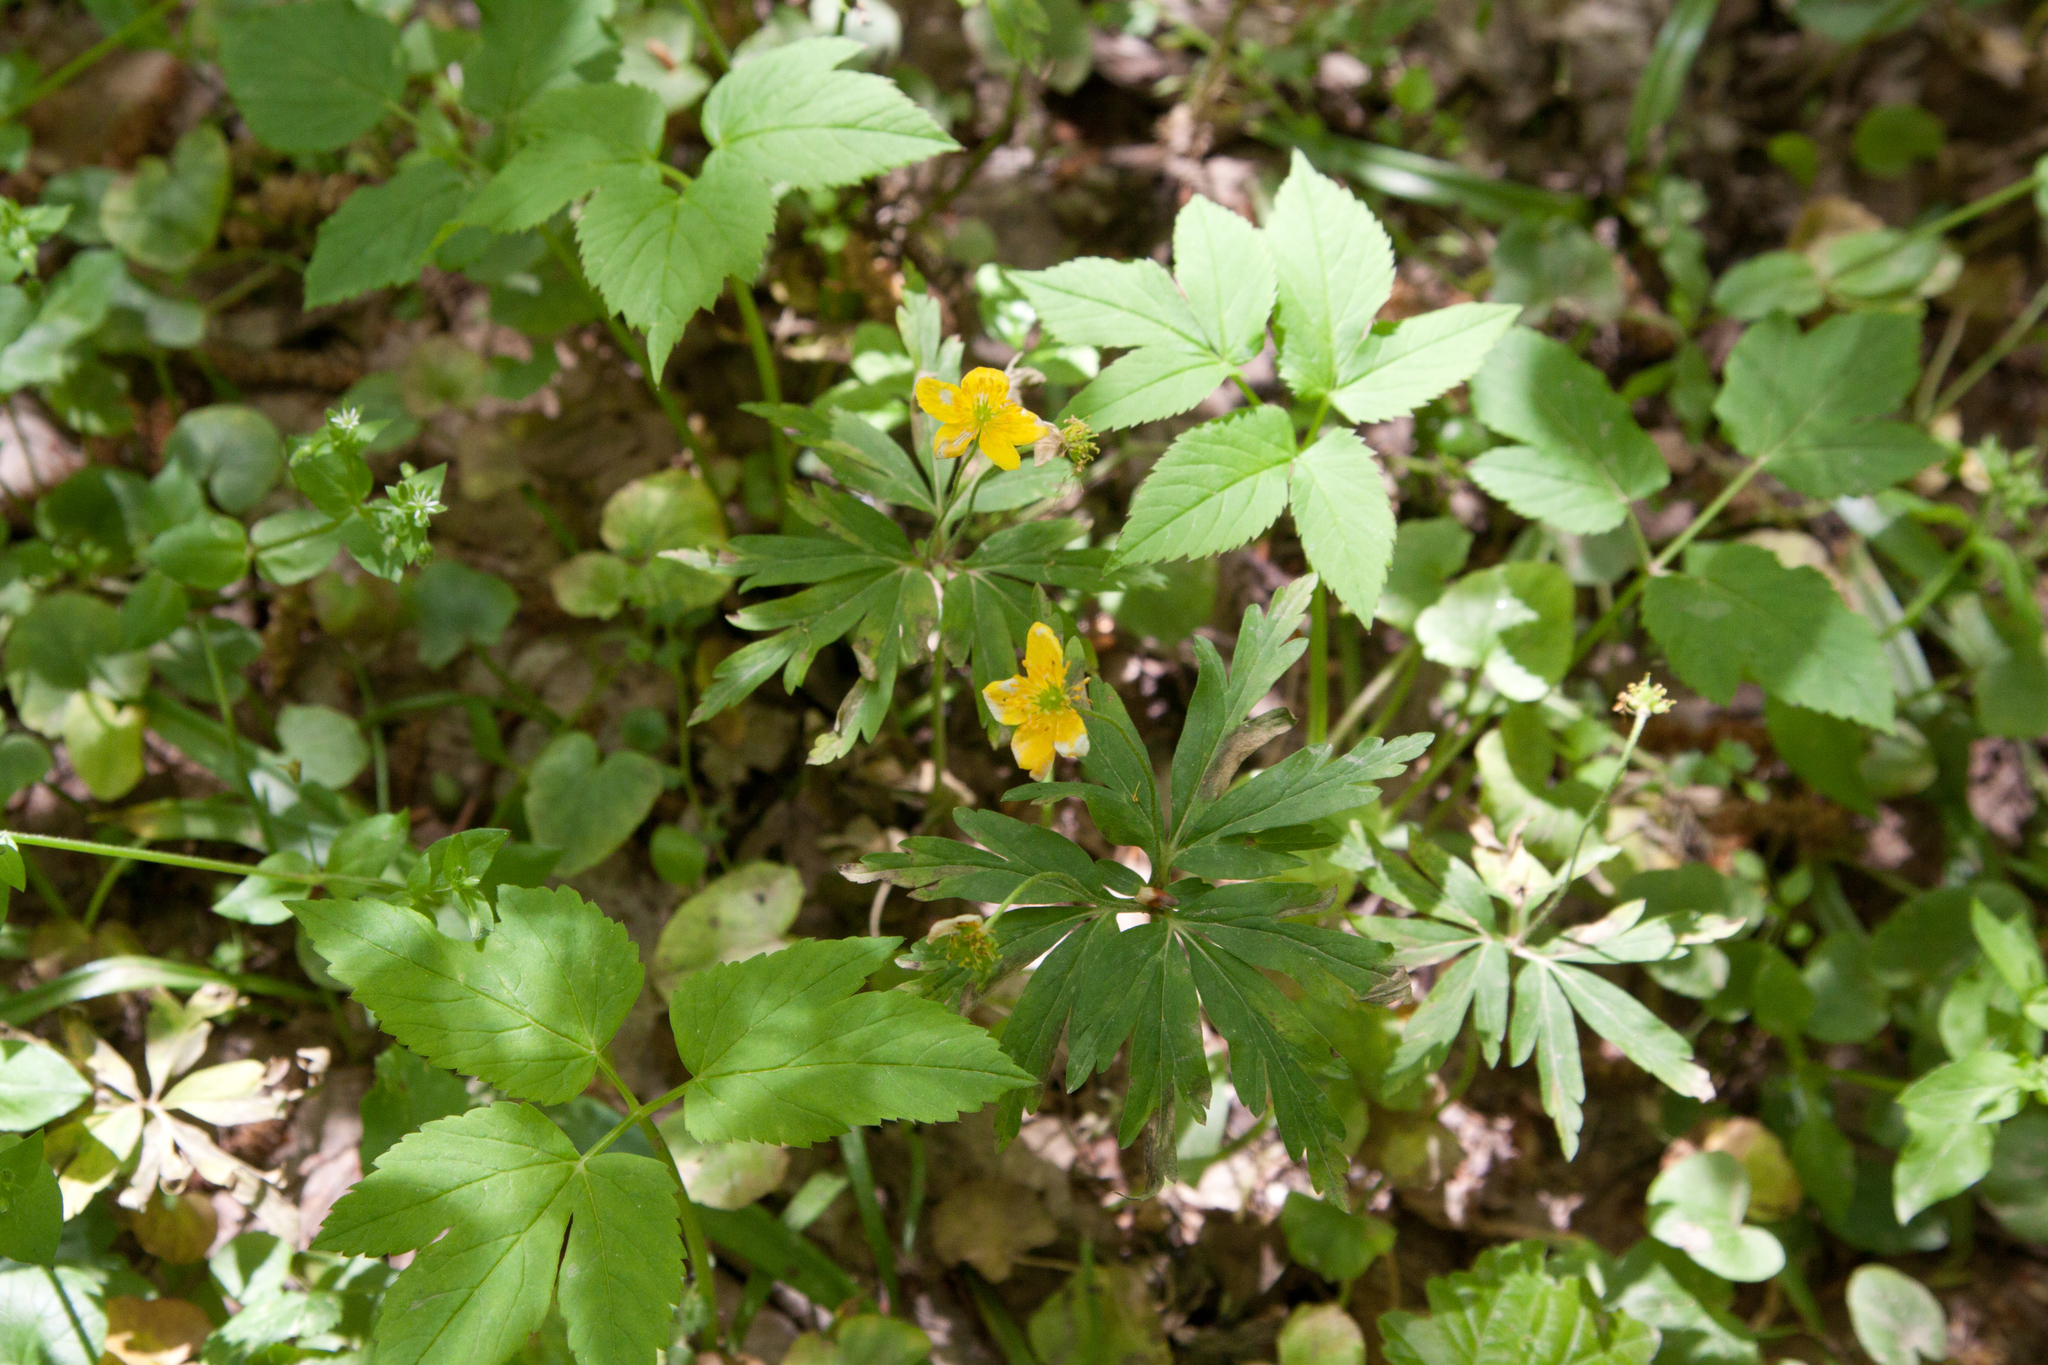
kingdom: Plantae
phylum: Tracheophyta
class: Magnoliopsida
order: Ranunculales
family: Ranunculaceae
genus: Anemone
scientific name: Anemone ranunculoides
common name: Yellow anemone
